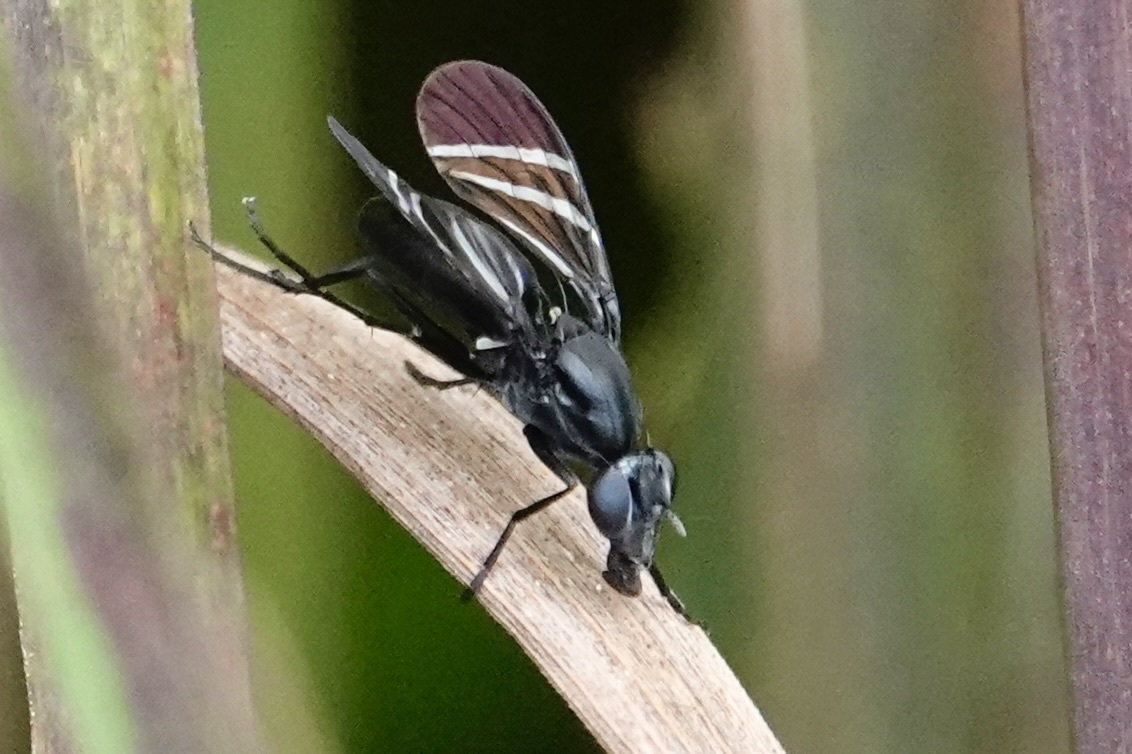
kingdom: Animalia
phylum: Arthropoda
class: Insecta
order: Diptera
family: Ulidiidae
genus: Tritoxa
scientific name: Tritoxa flexa
